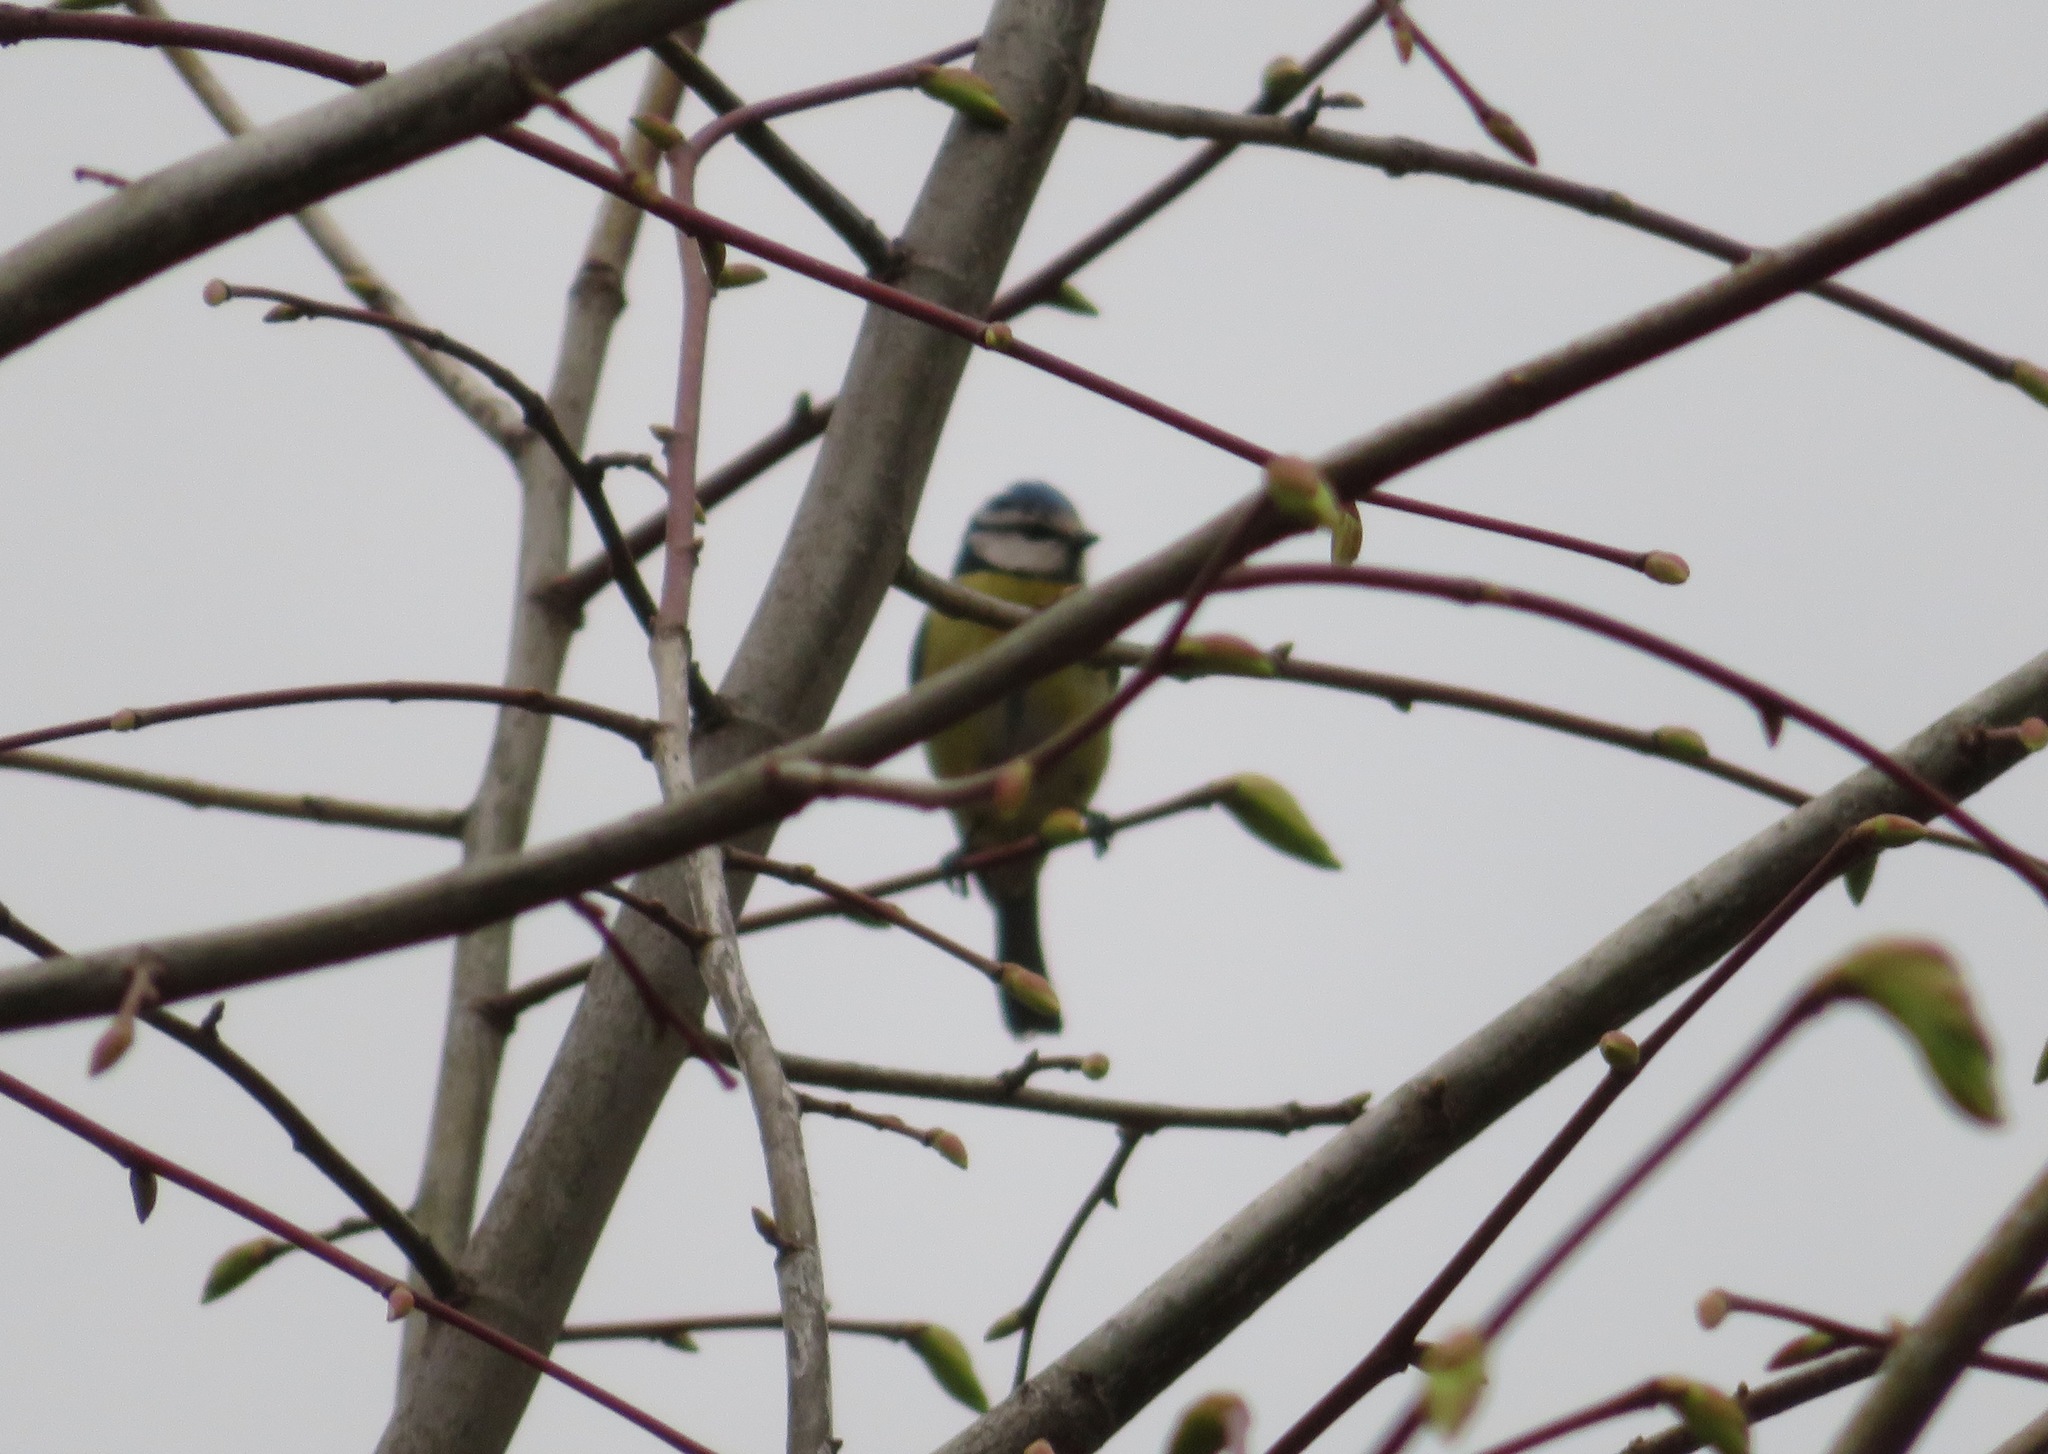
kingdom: Animalia
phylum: Chordata
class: Aves
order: Passeriformes
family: Paridae
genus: Cyanistes
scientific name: Cyanistes caeruleus
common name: Eurasian blue tit
